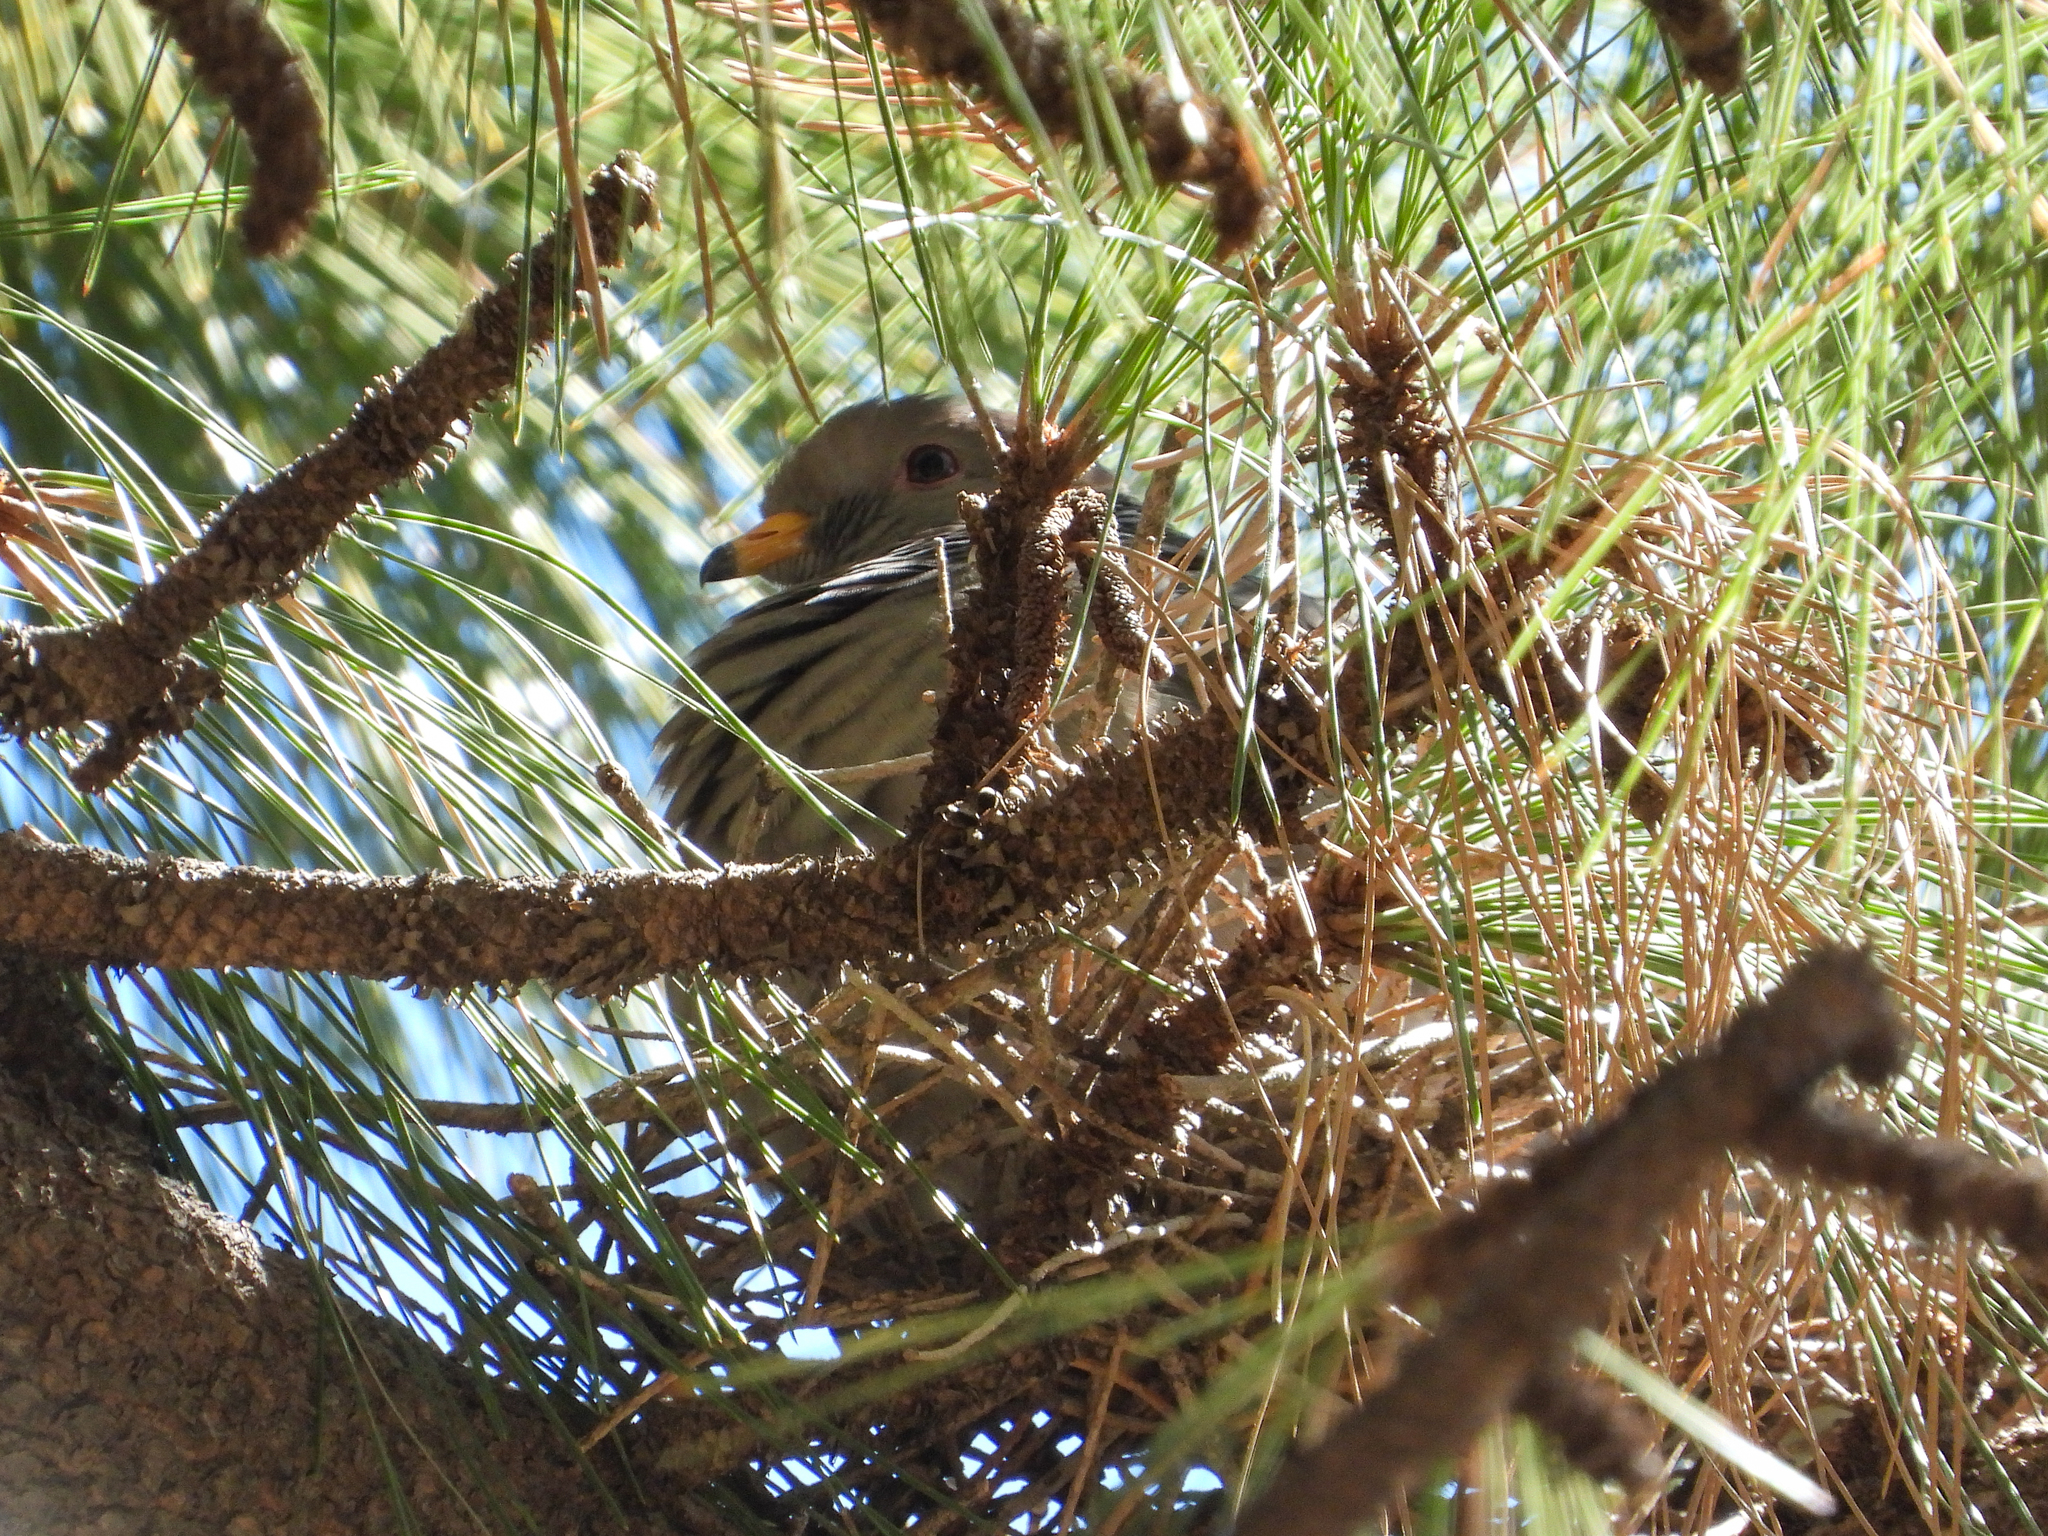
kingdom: Animalia
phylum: Chordata
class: Aves
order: Columbiformes
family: Columbidae
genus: Patagioenas
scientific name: Patagioenas fasciata
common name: Band-tailed pigeon
